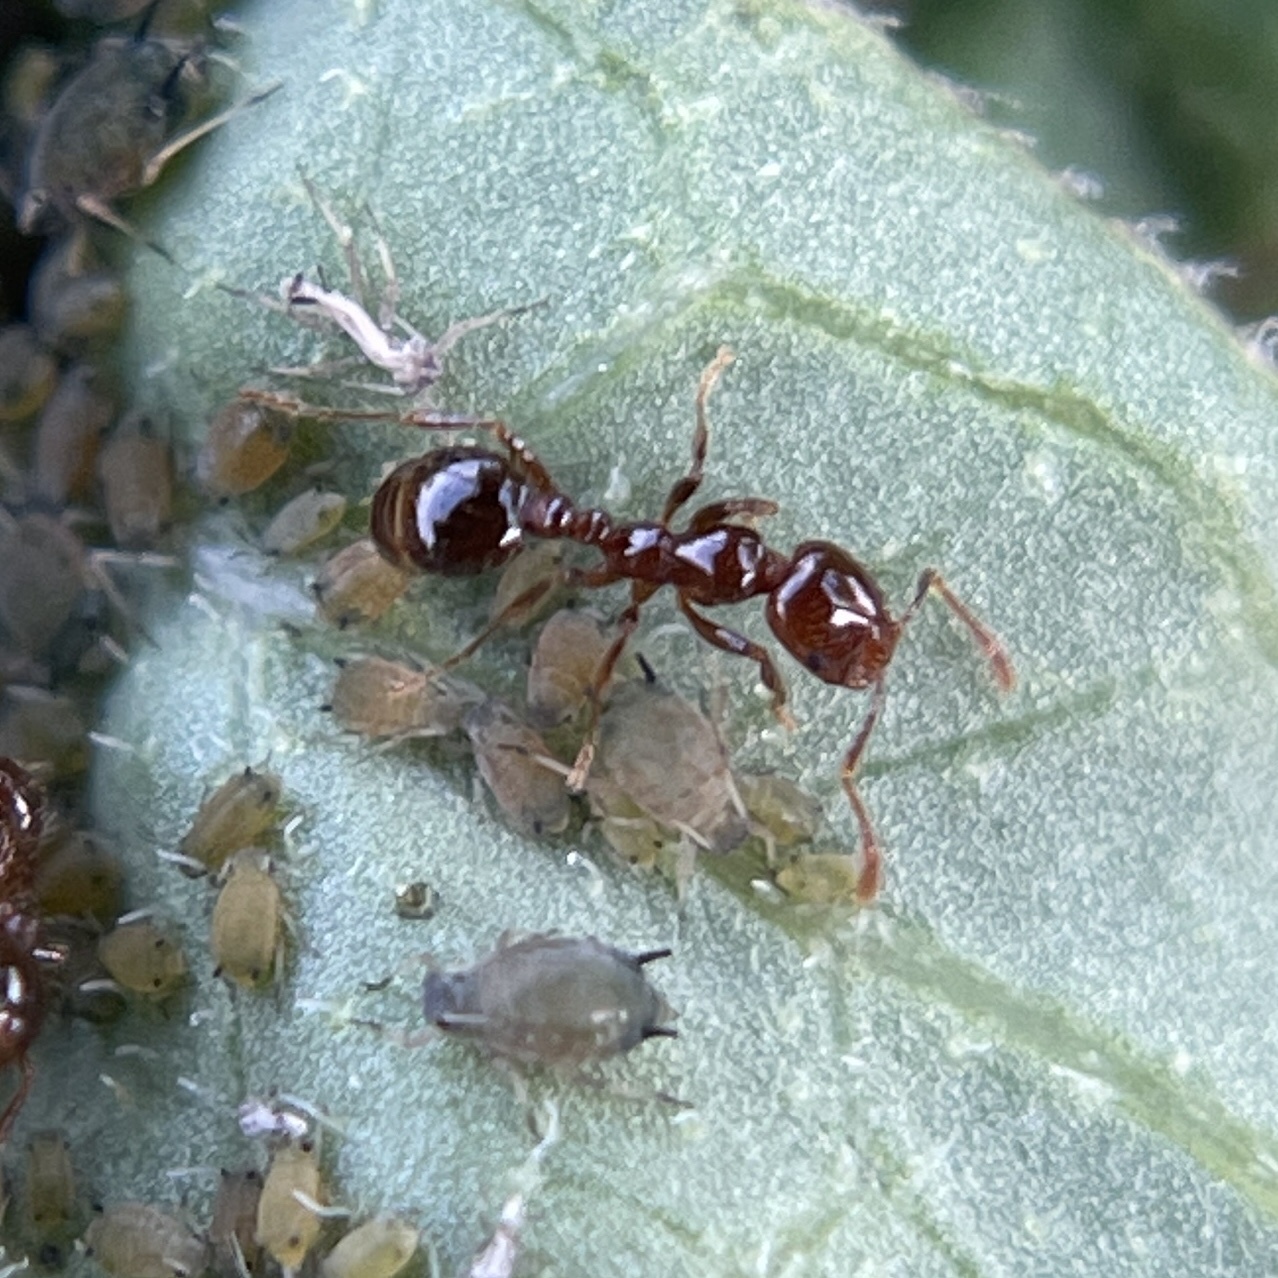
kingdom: Animalia
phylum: Arthropoda
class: Insecta
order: Hymenoptera
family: Formicidae
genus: Solenopsis
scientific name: Solenopsis invicta
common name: Red imported fire ant
